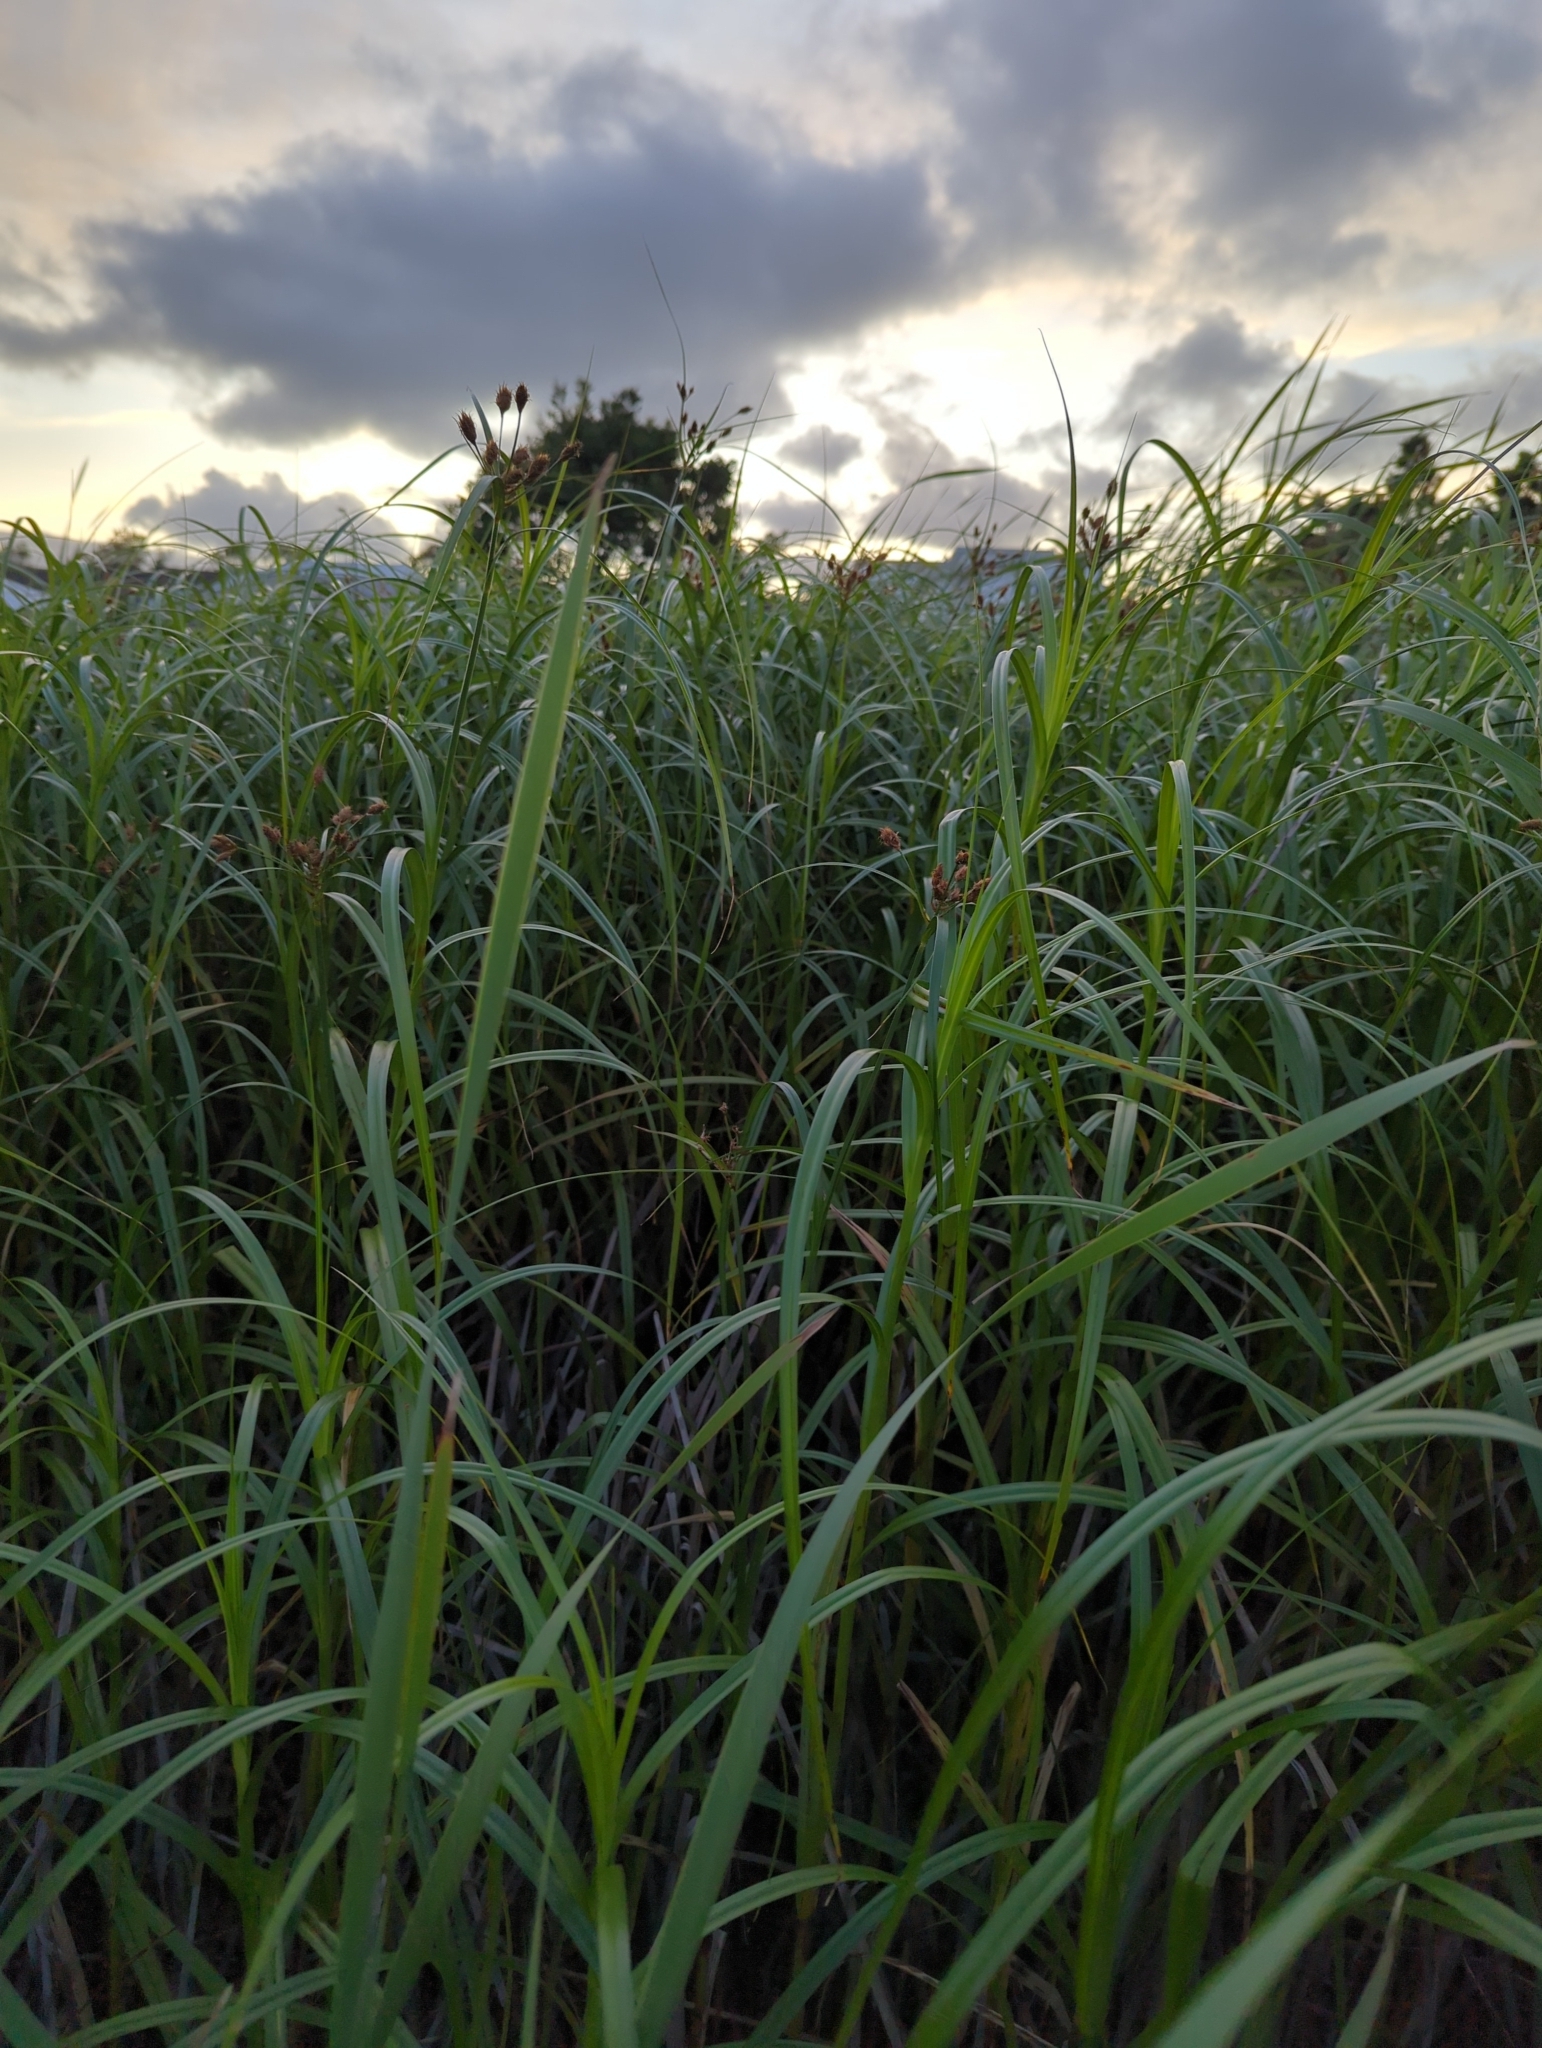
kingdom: Plantae
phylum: Tracheophyta
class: Liliopsida
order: Poales
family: Cyperaceae
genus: Bolboschoenus
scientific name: Bolboschoenus fluviatilis
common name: River bulrush
